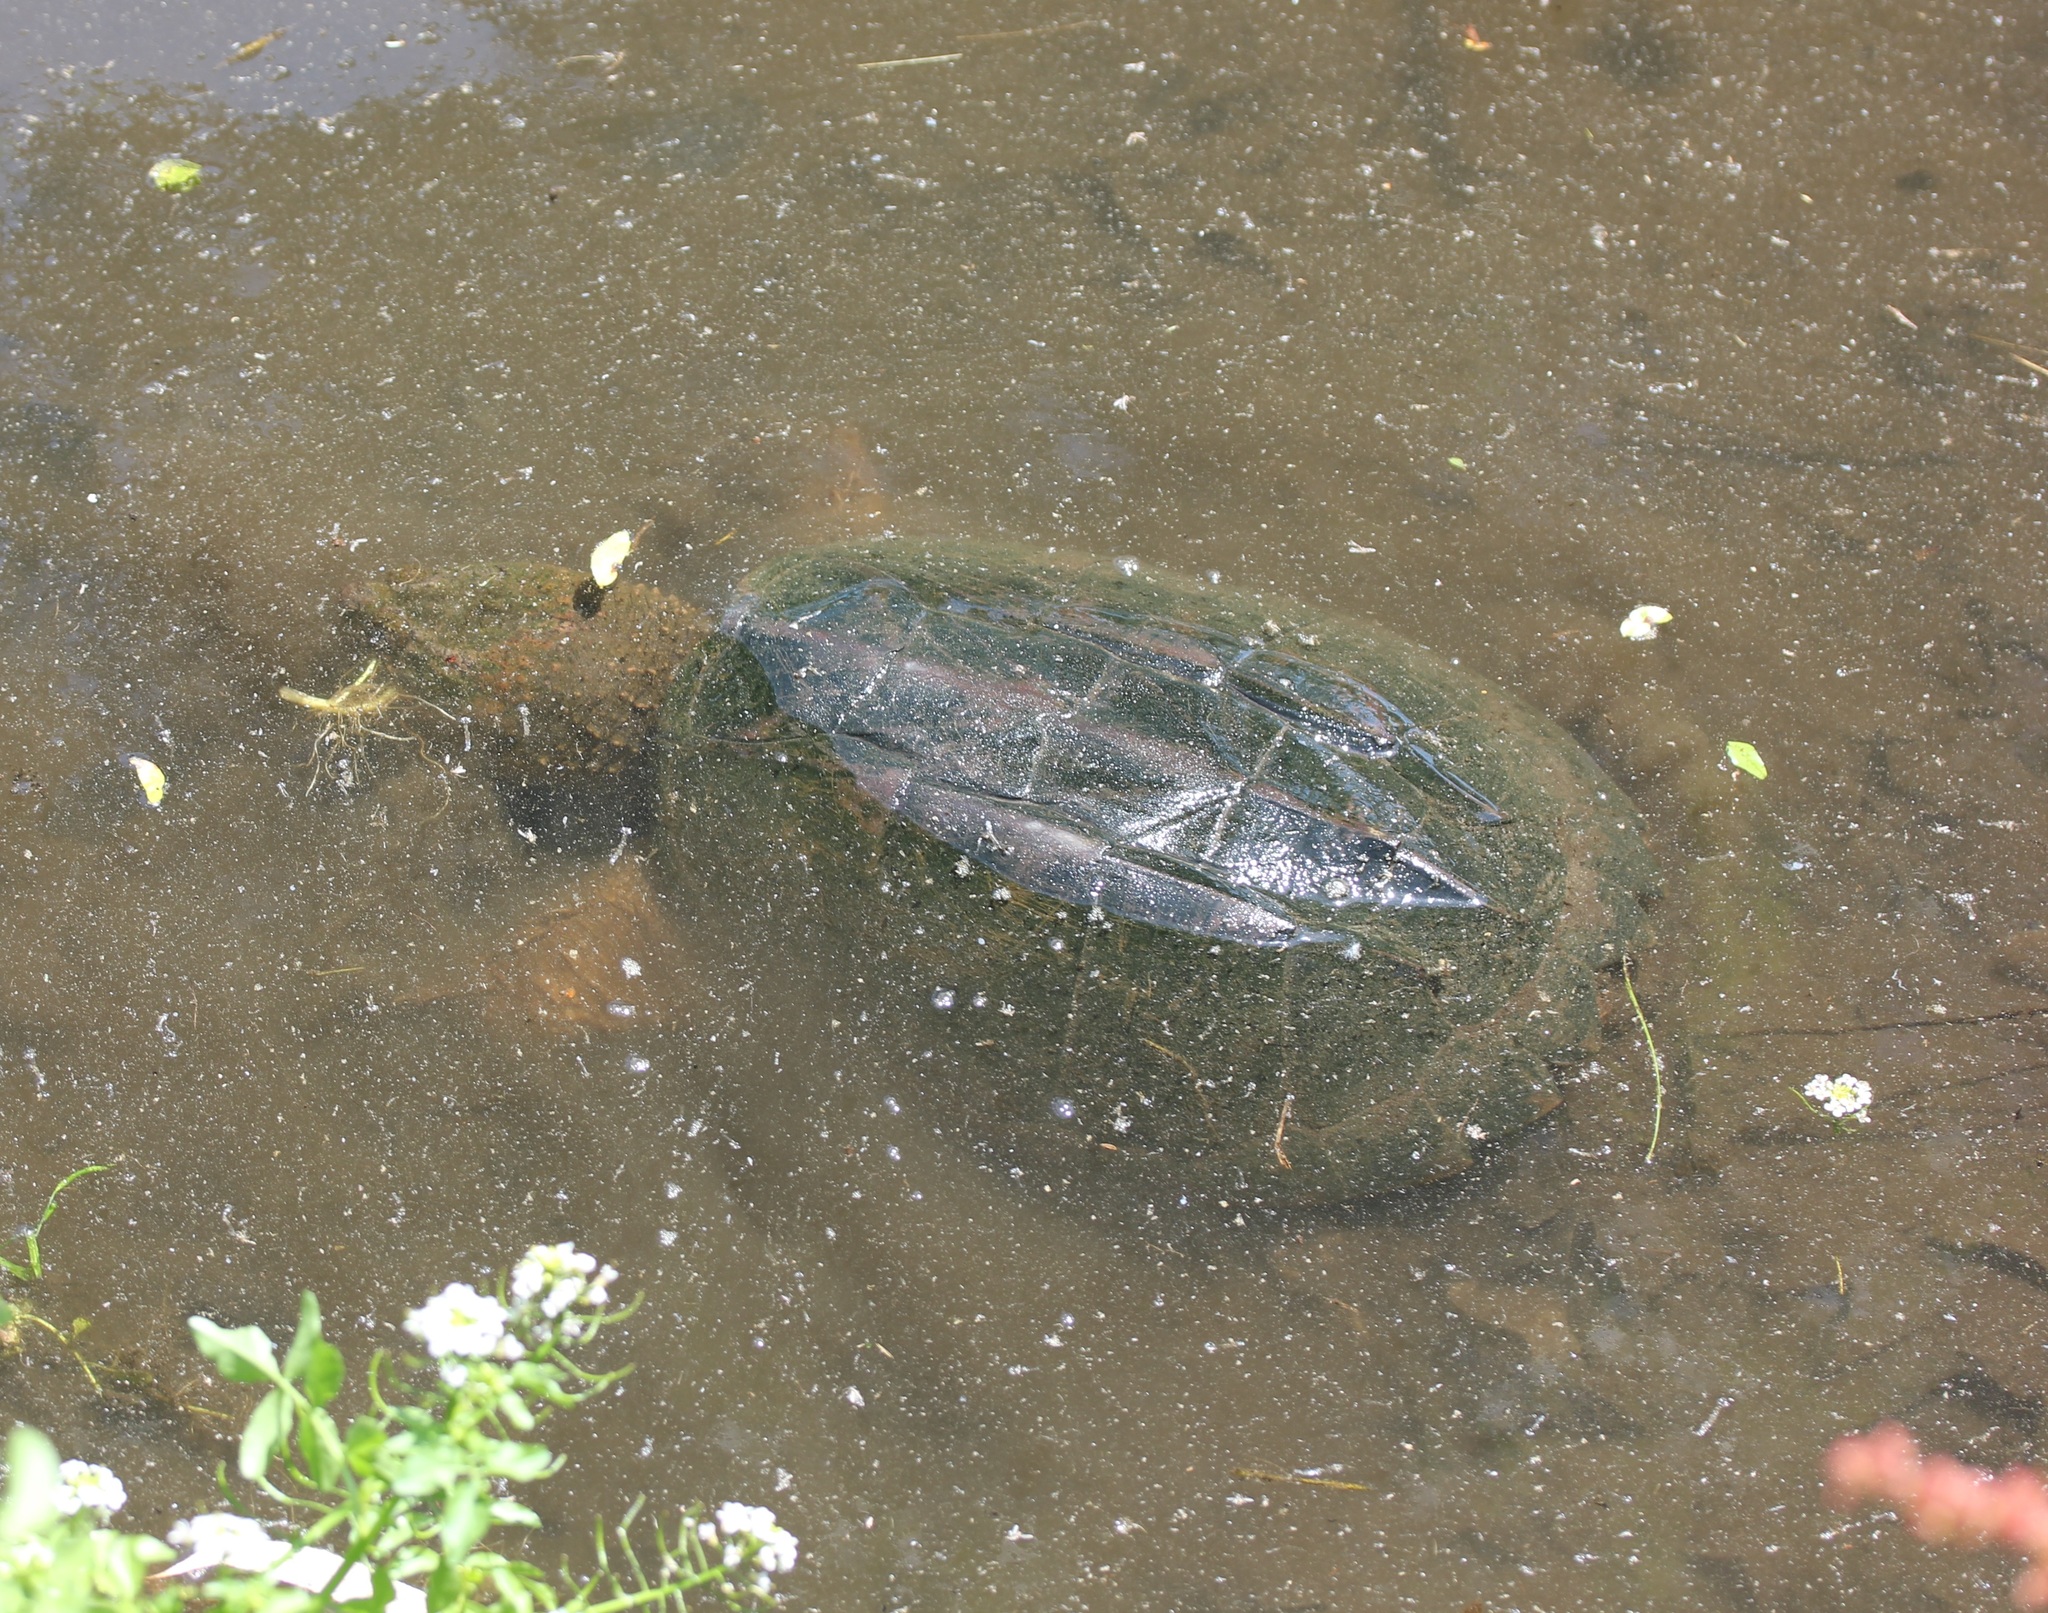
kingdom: Animalia
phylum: Chordata
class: Testudines
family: Chelydridae
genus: Chelydra
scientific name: Chelydra serpentina
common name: Common snapping turtle
